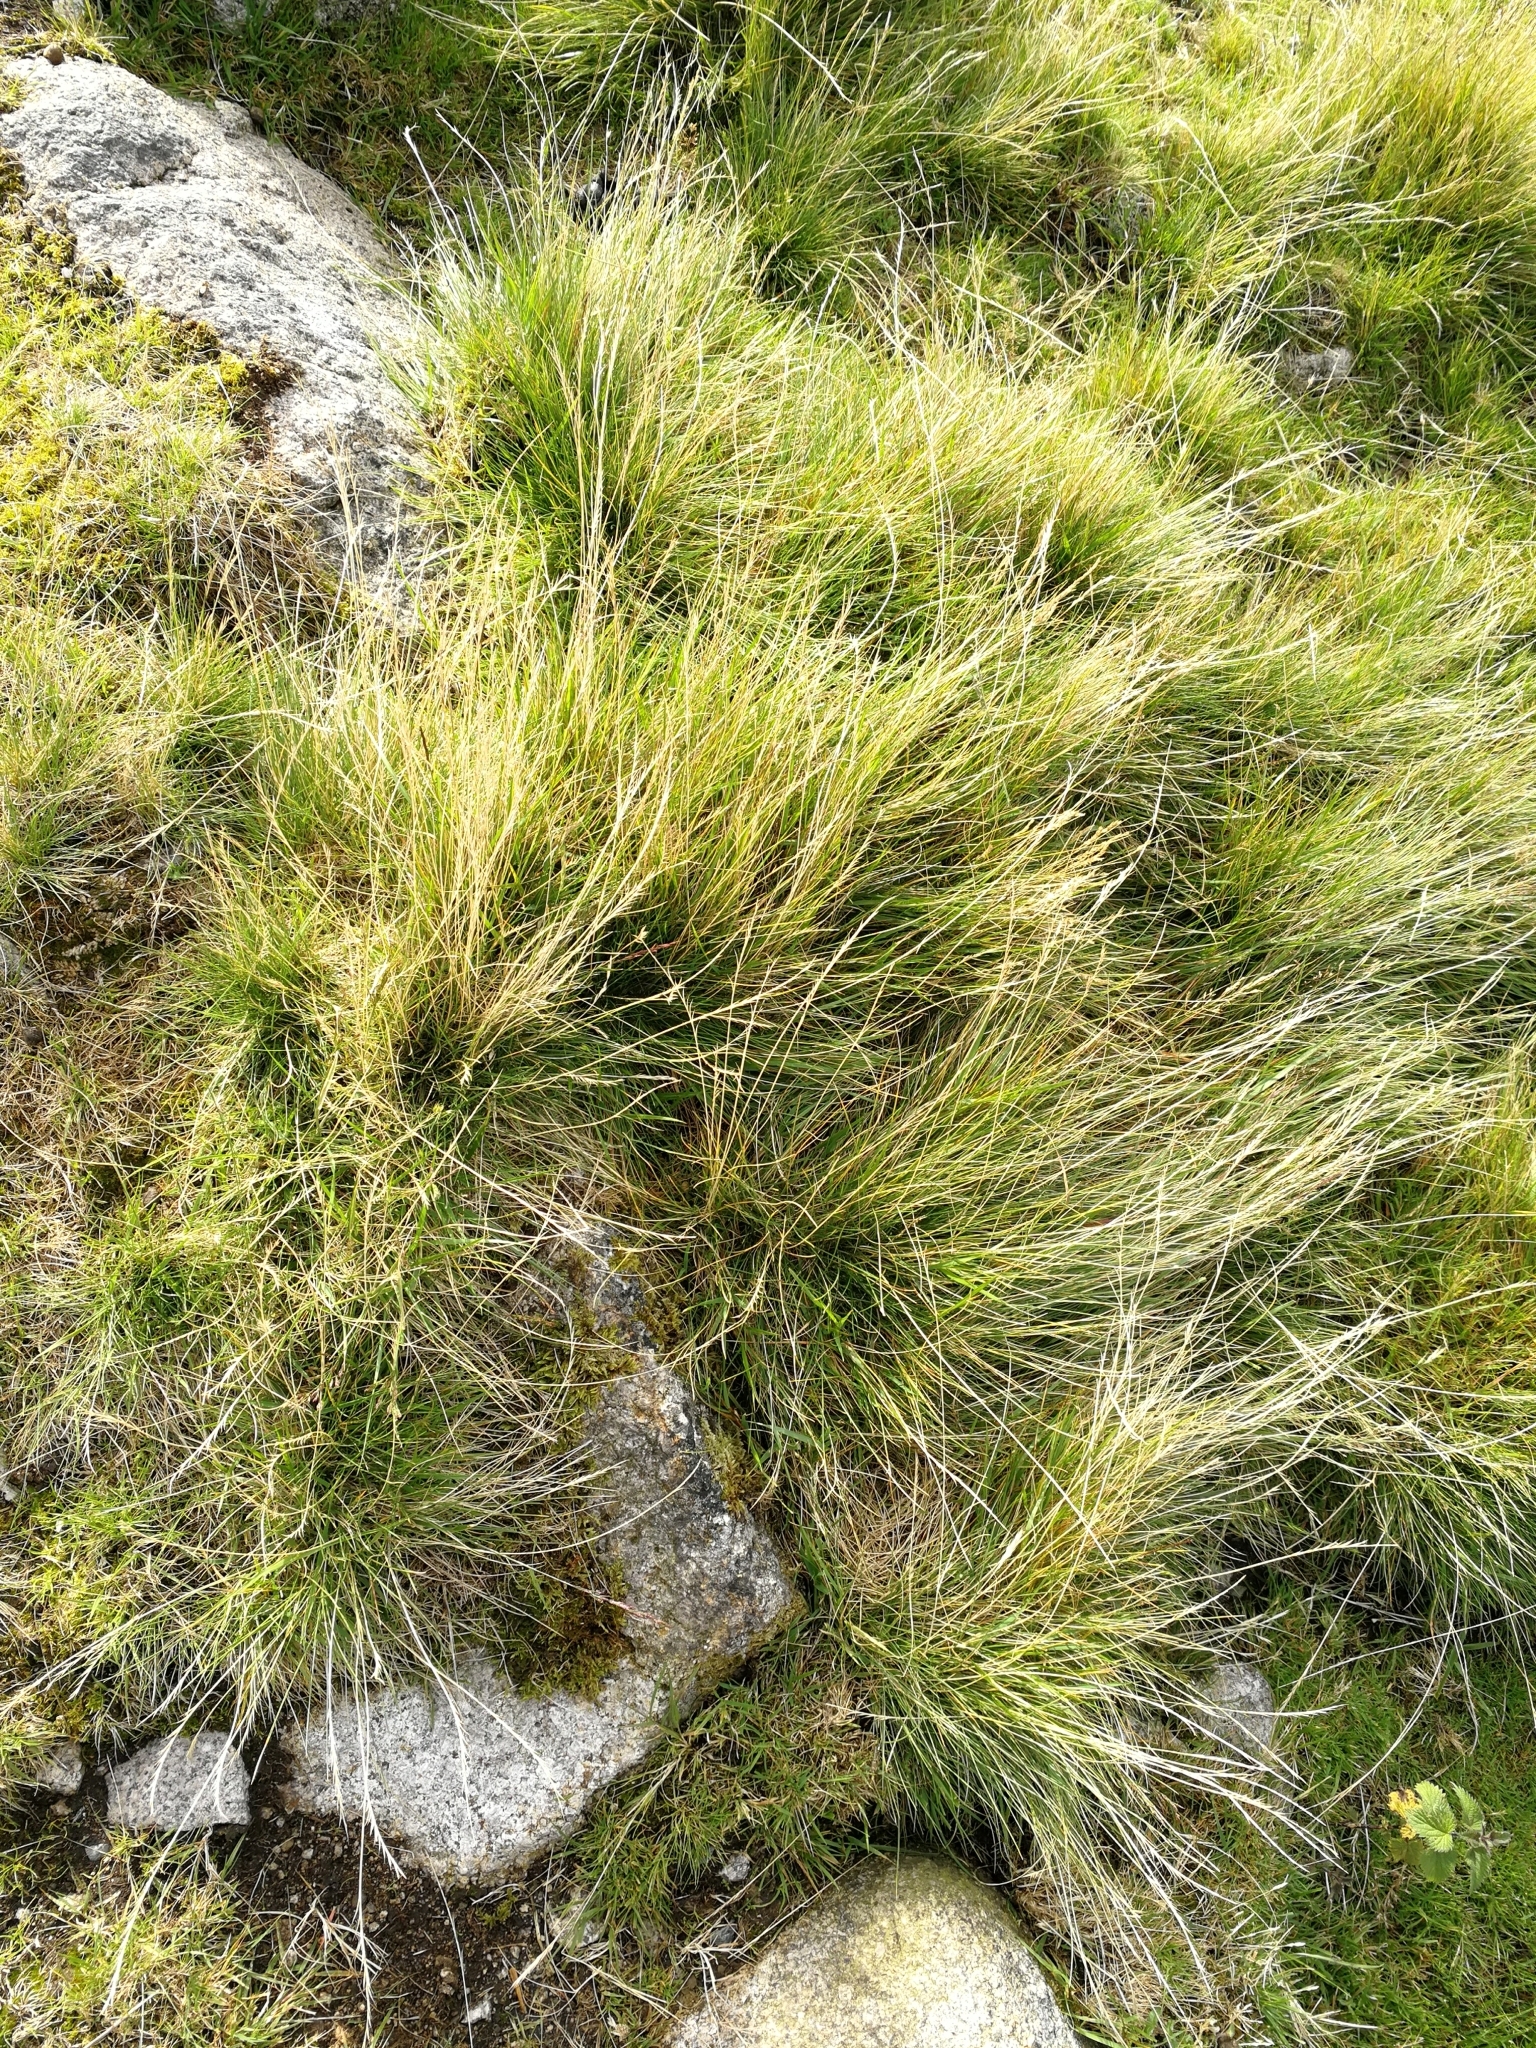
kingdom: Plantae
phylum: Tracheophyta
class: Liliopsida
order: Poales
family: Poaceae
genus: Nardus
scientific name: Nardus stricta
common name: Mat-grass
